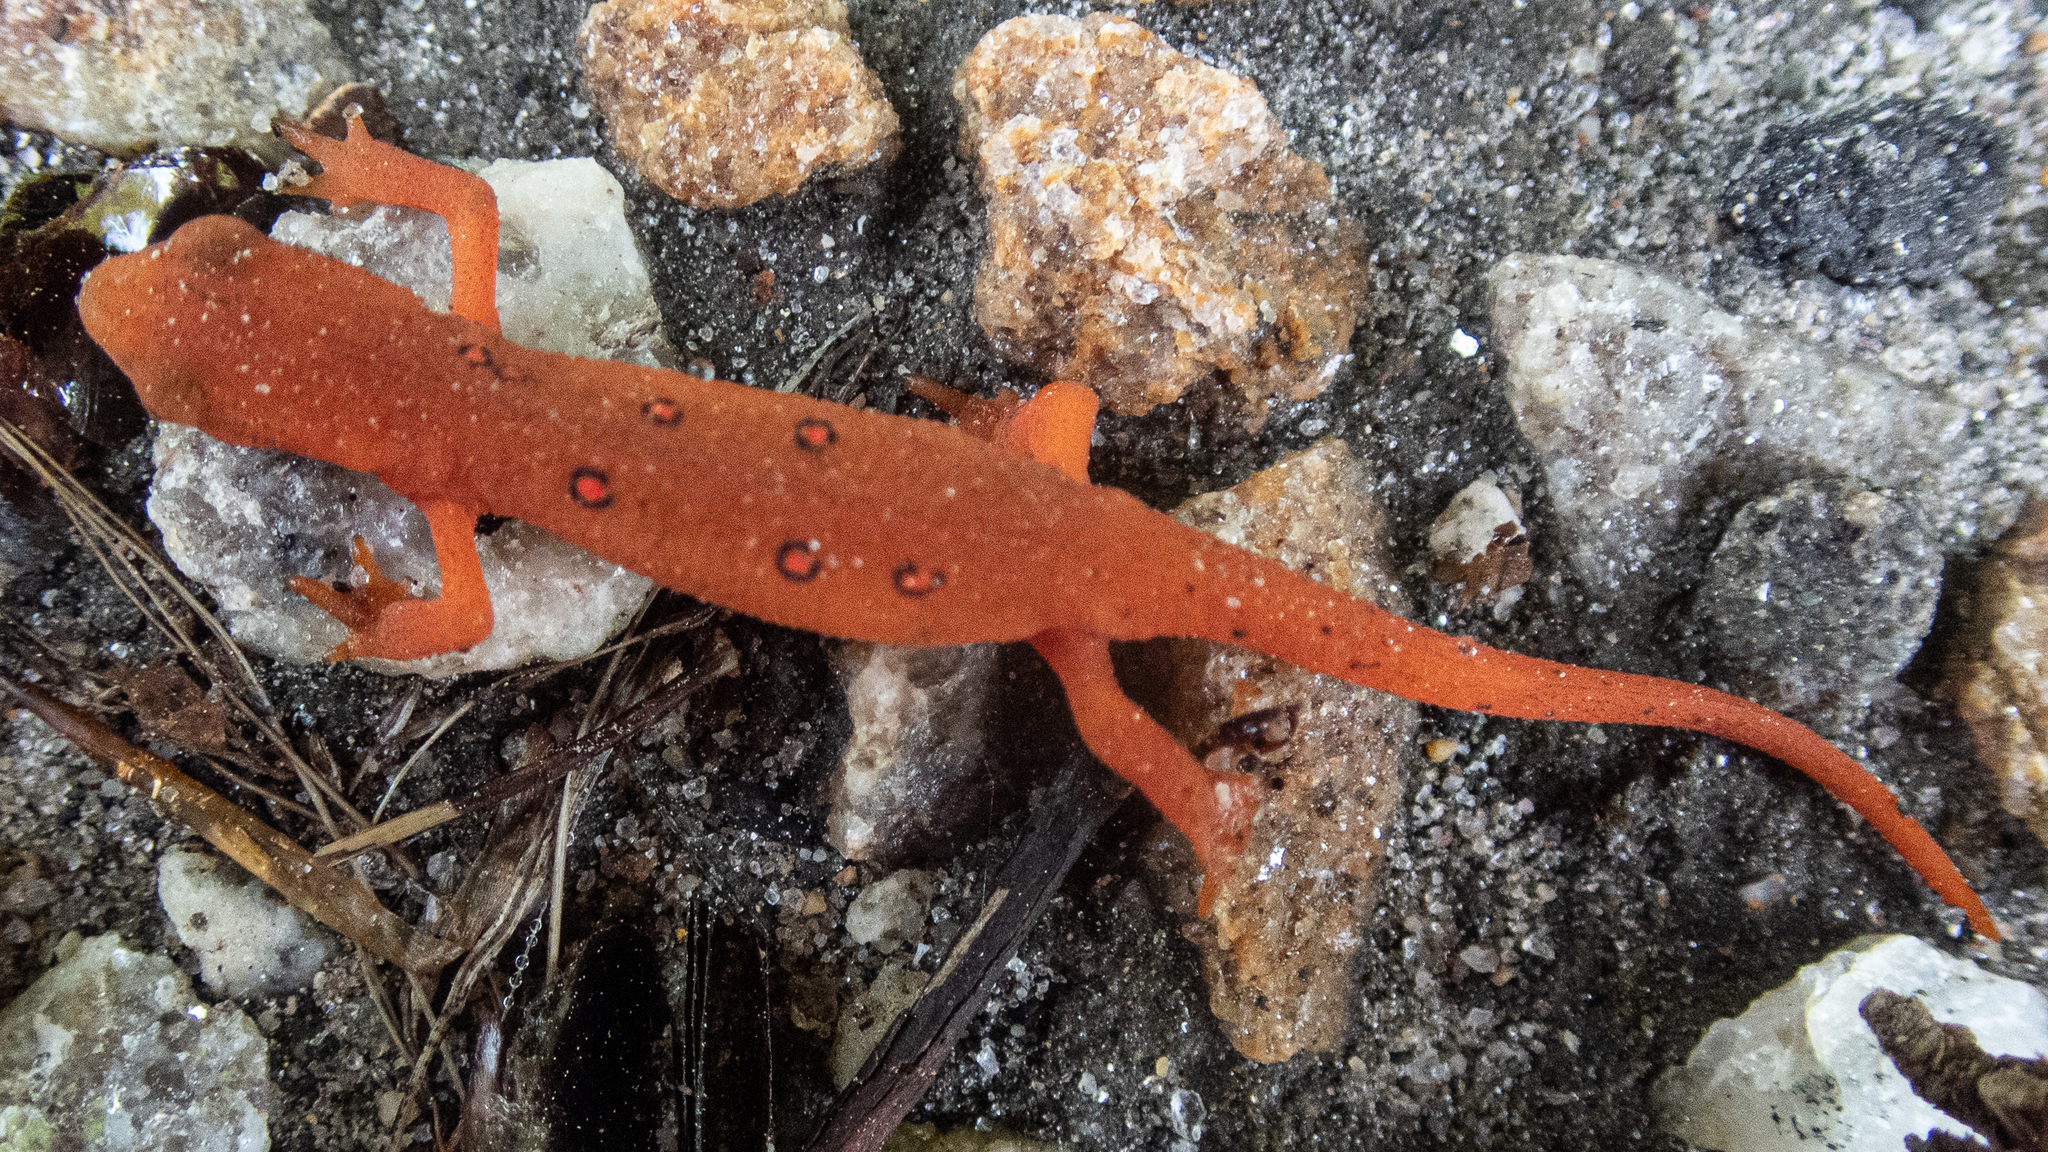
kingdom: Animalia
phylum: Chordata
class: Amphibia
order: Caudata
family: Salamandridae
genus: Notophthalmus
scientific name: Notophthalmus viridescens
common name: Eastern newt
